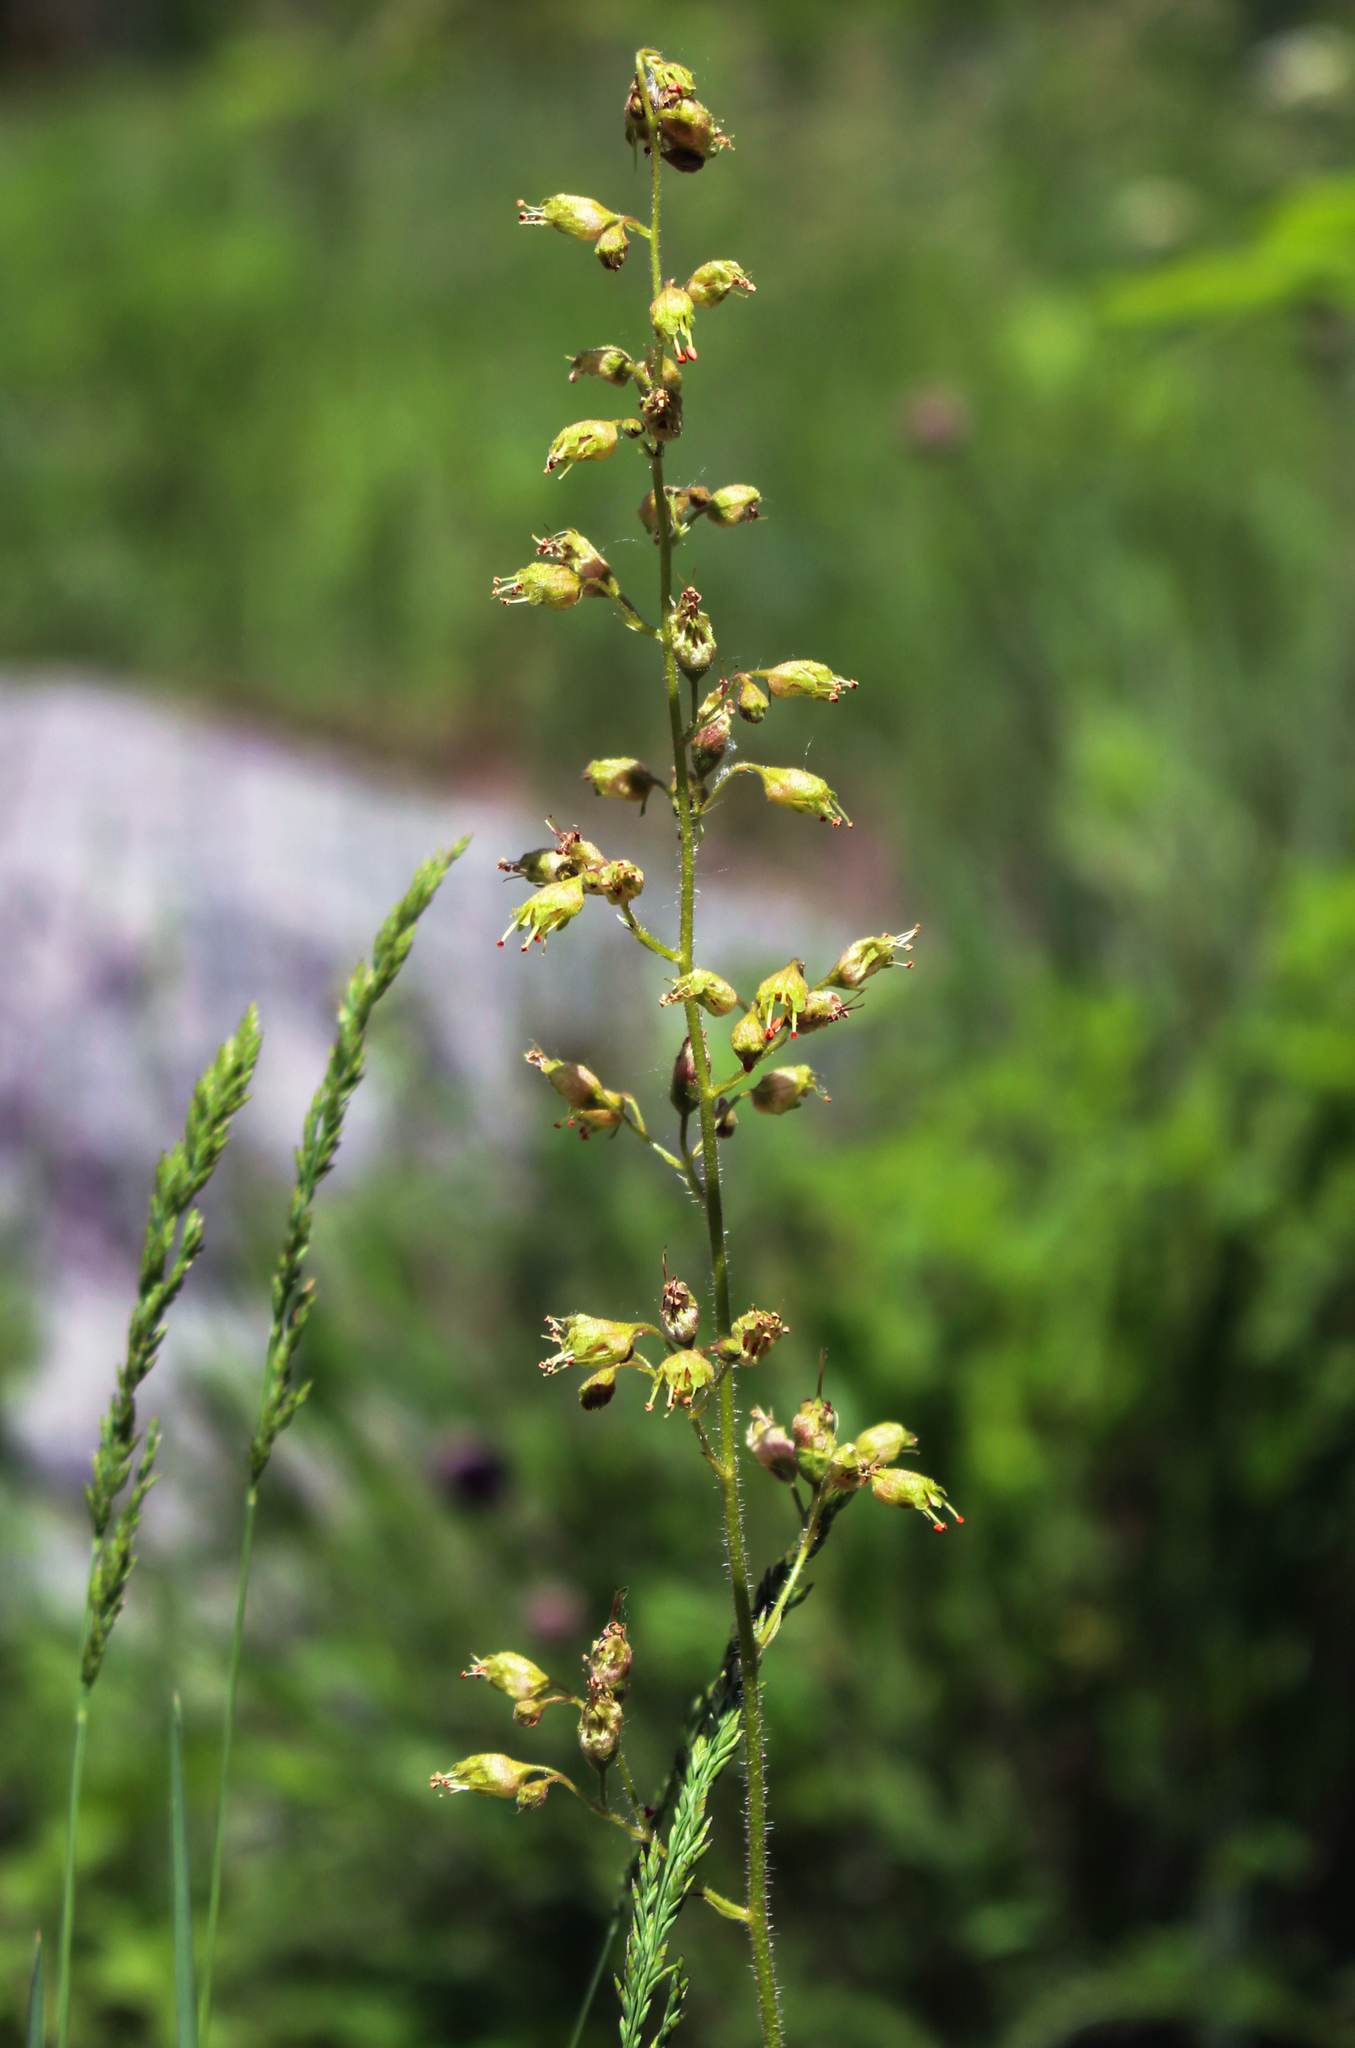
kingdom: Plantae
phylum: Tracheophyta
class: Magnoliopsida
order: Saxifragales
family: Saxifragaceae
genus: Heuchera
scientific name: Heuchera richardsonii
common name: Richardson's alumroot
